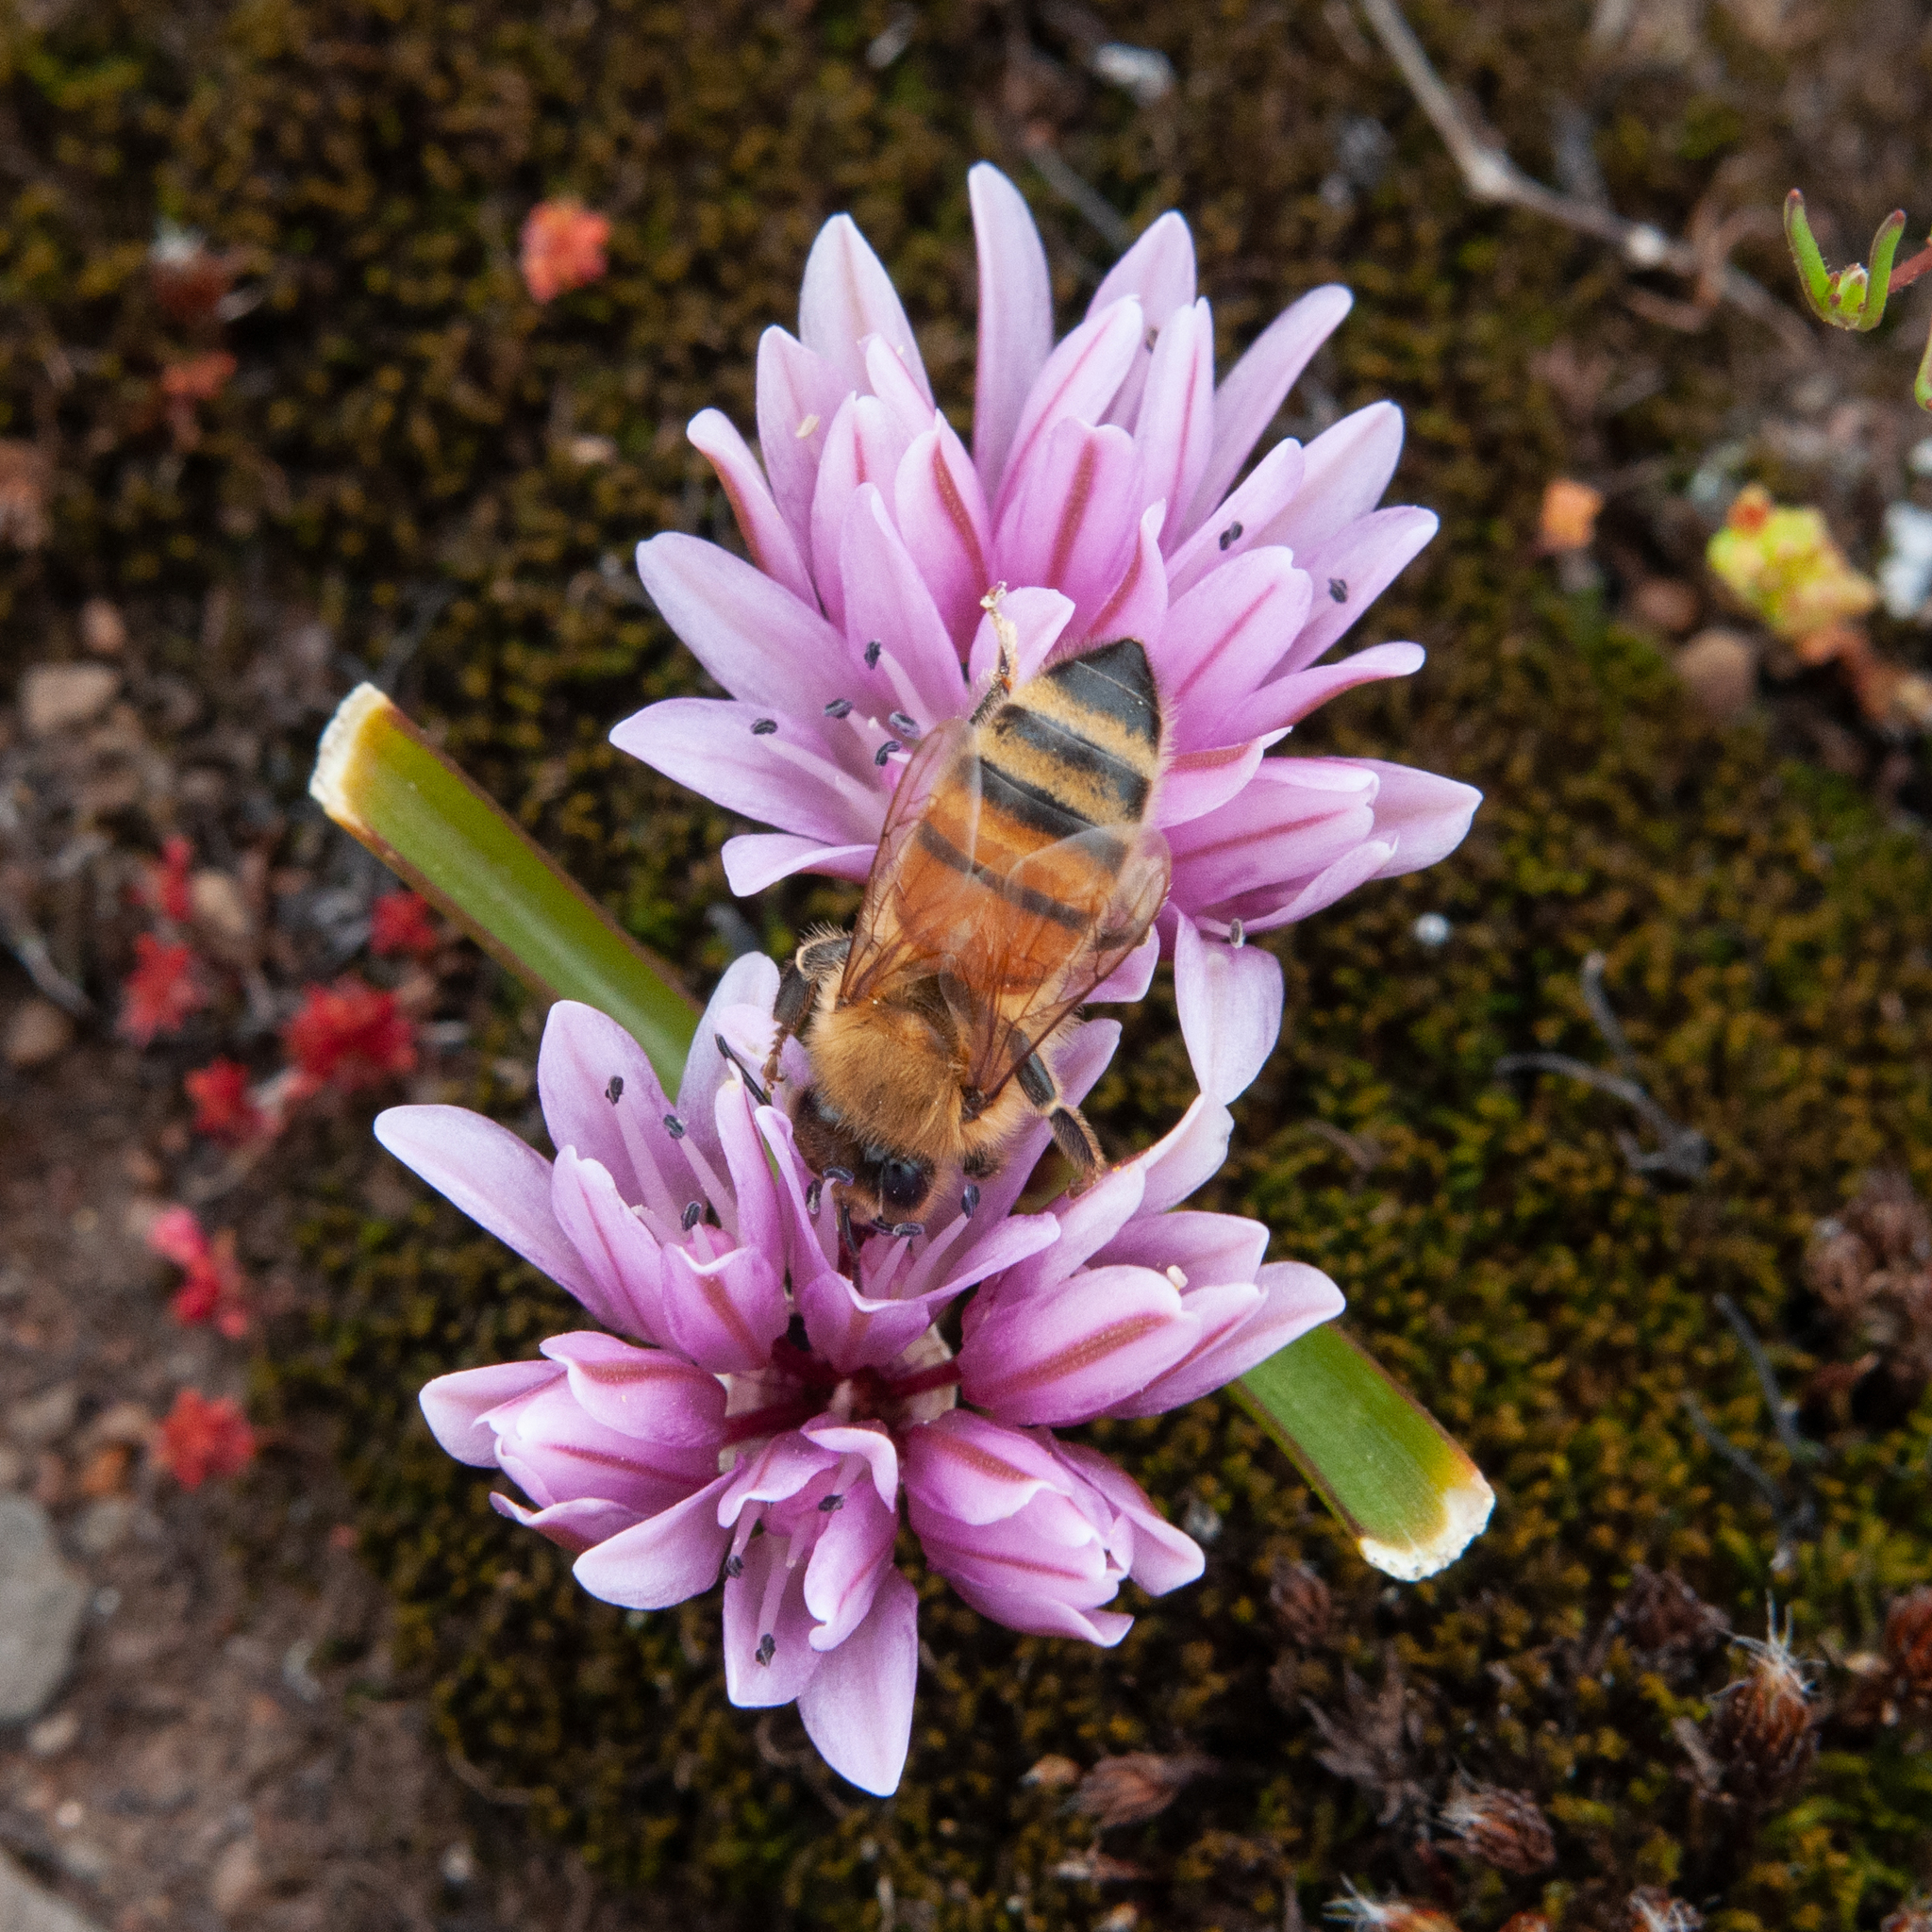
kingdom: Plantae
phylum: Tracheophyta
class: Liliopsida
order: Asparagales
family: Amaryllidaceae
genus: Allium
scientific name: Allium cratericola
